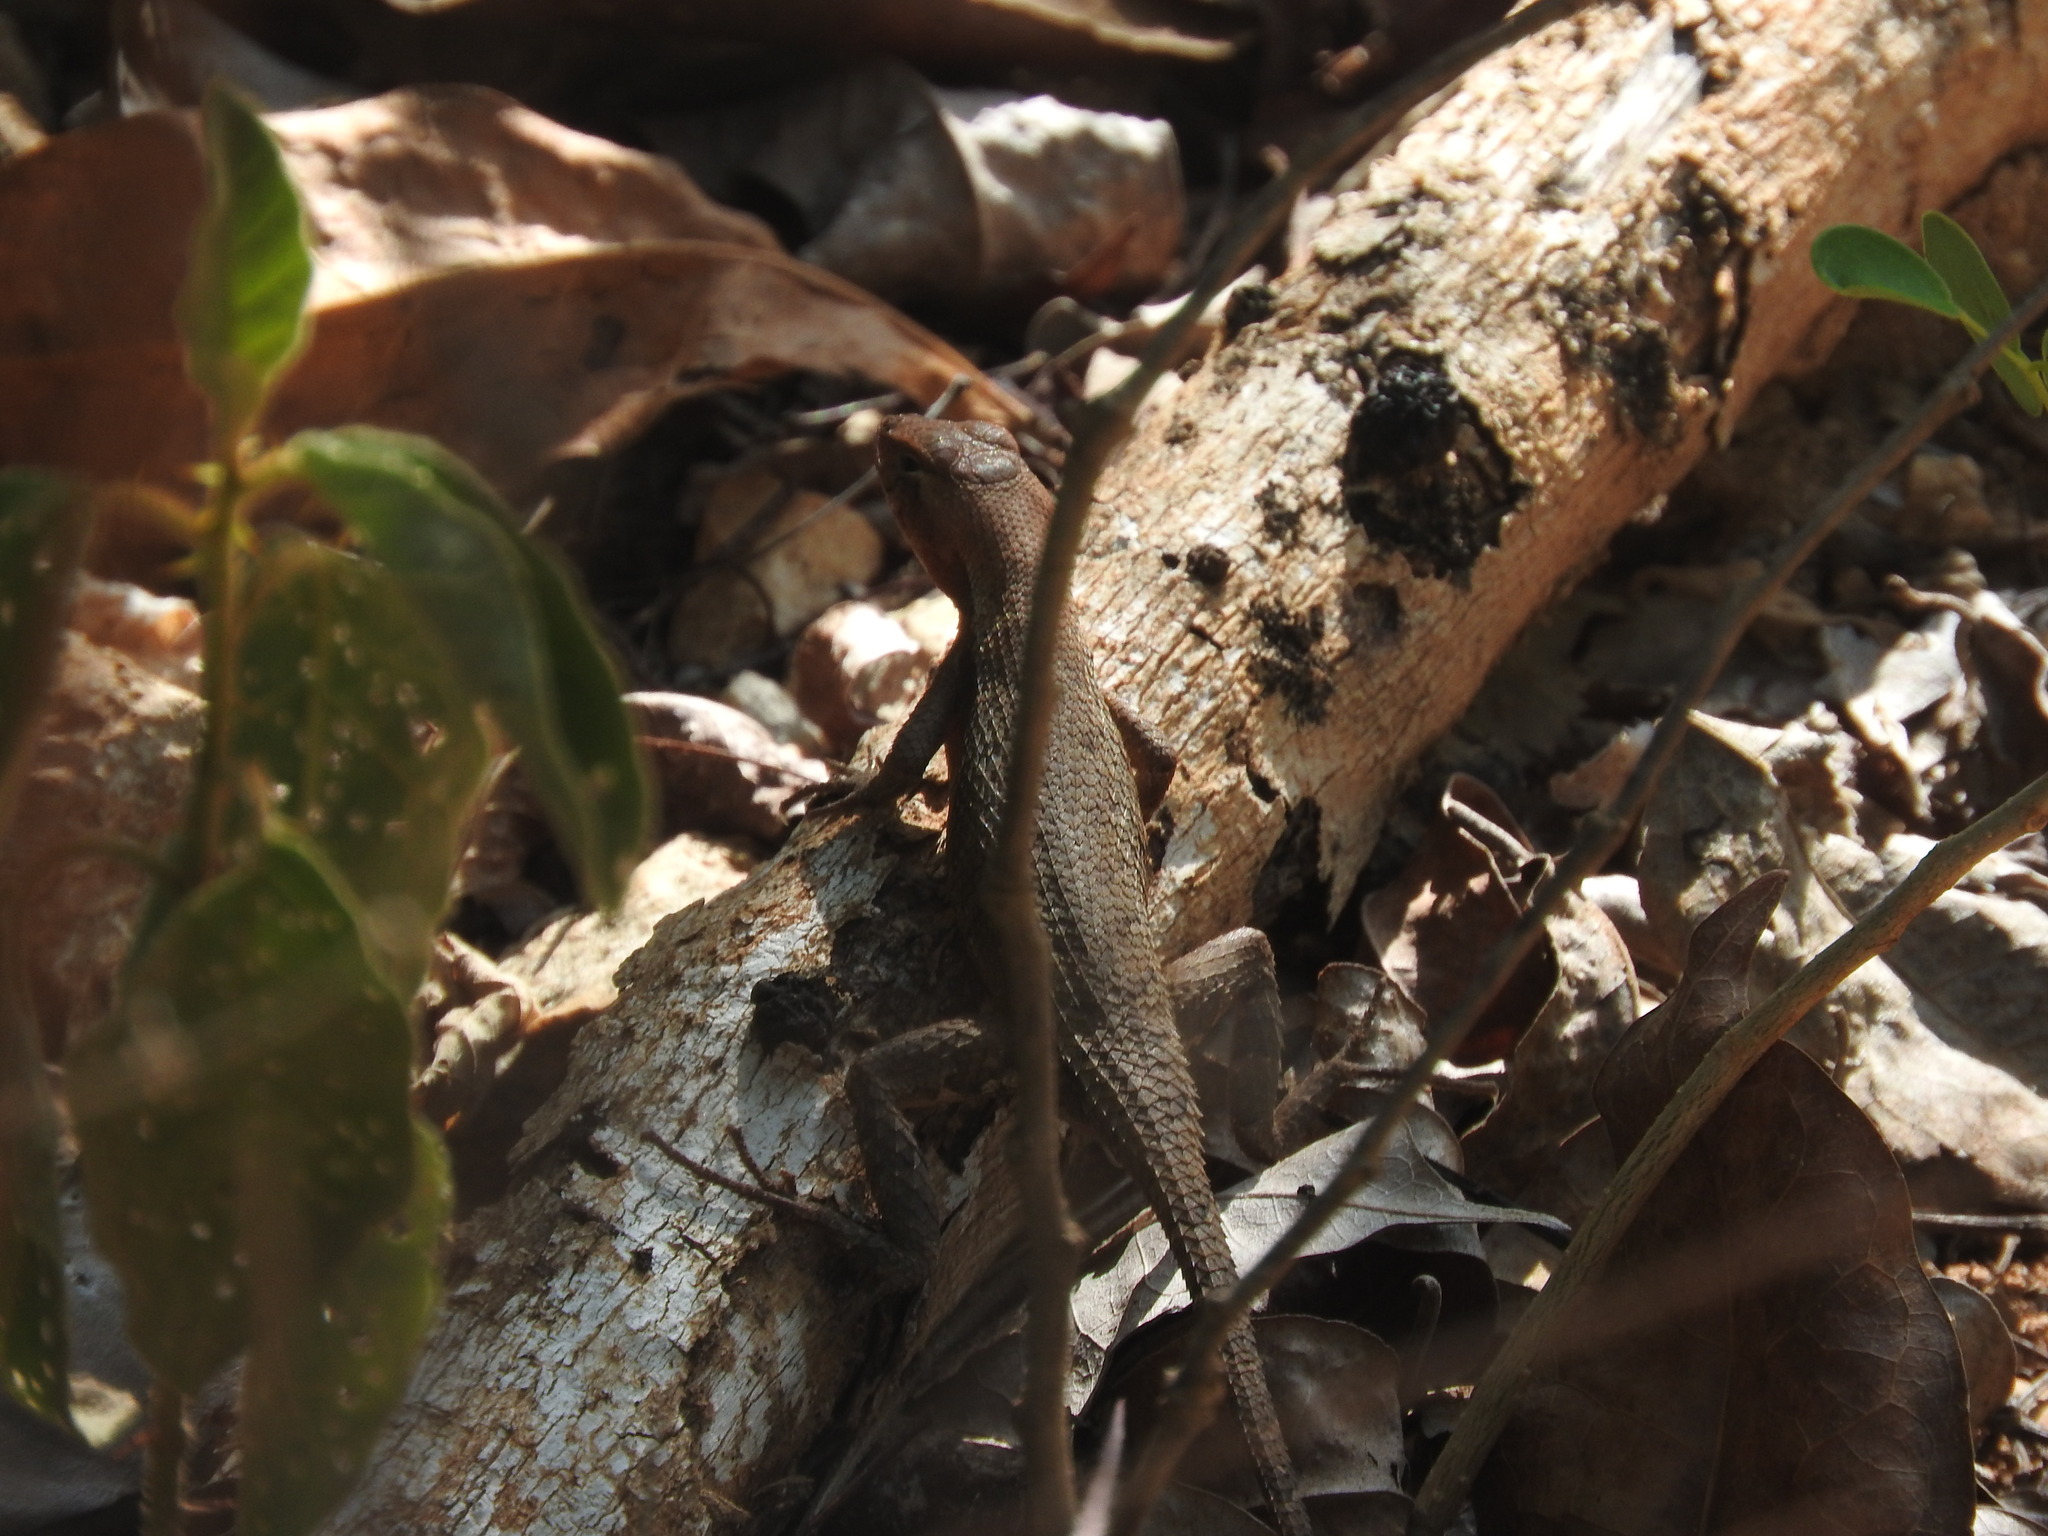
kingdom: Animalia
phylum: Chordata
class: Squamata
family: Phrynosomatidae
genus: Sceloporus
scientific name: Sceloporus chrysostictus
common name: Yellow-spotted spiny lizard
